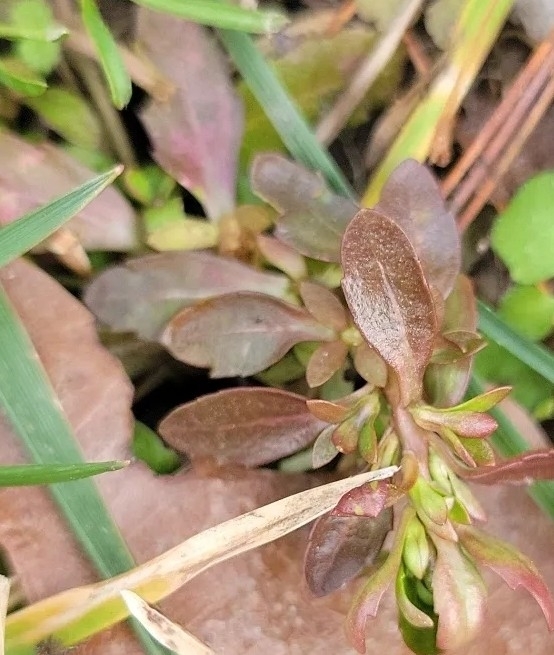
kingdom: Plantae
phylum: Tracheophyta
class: Magnoliopsida
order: Lamiales
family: Plantaginaceae
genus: Veronica
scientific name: Veronica peregrina
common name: Neckweed
